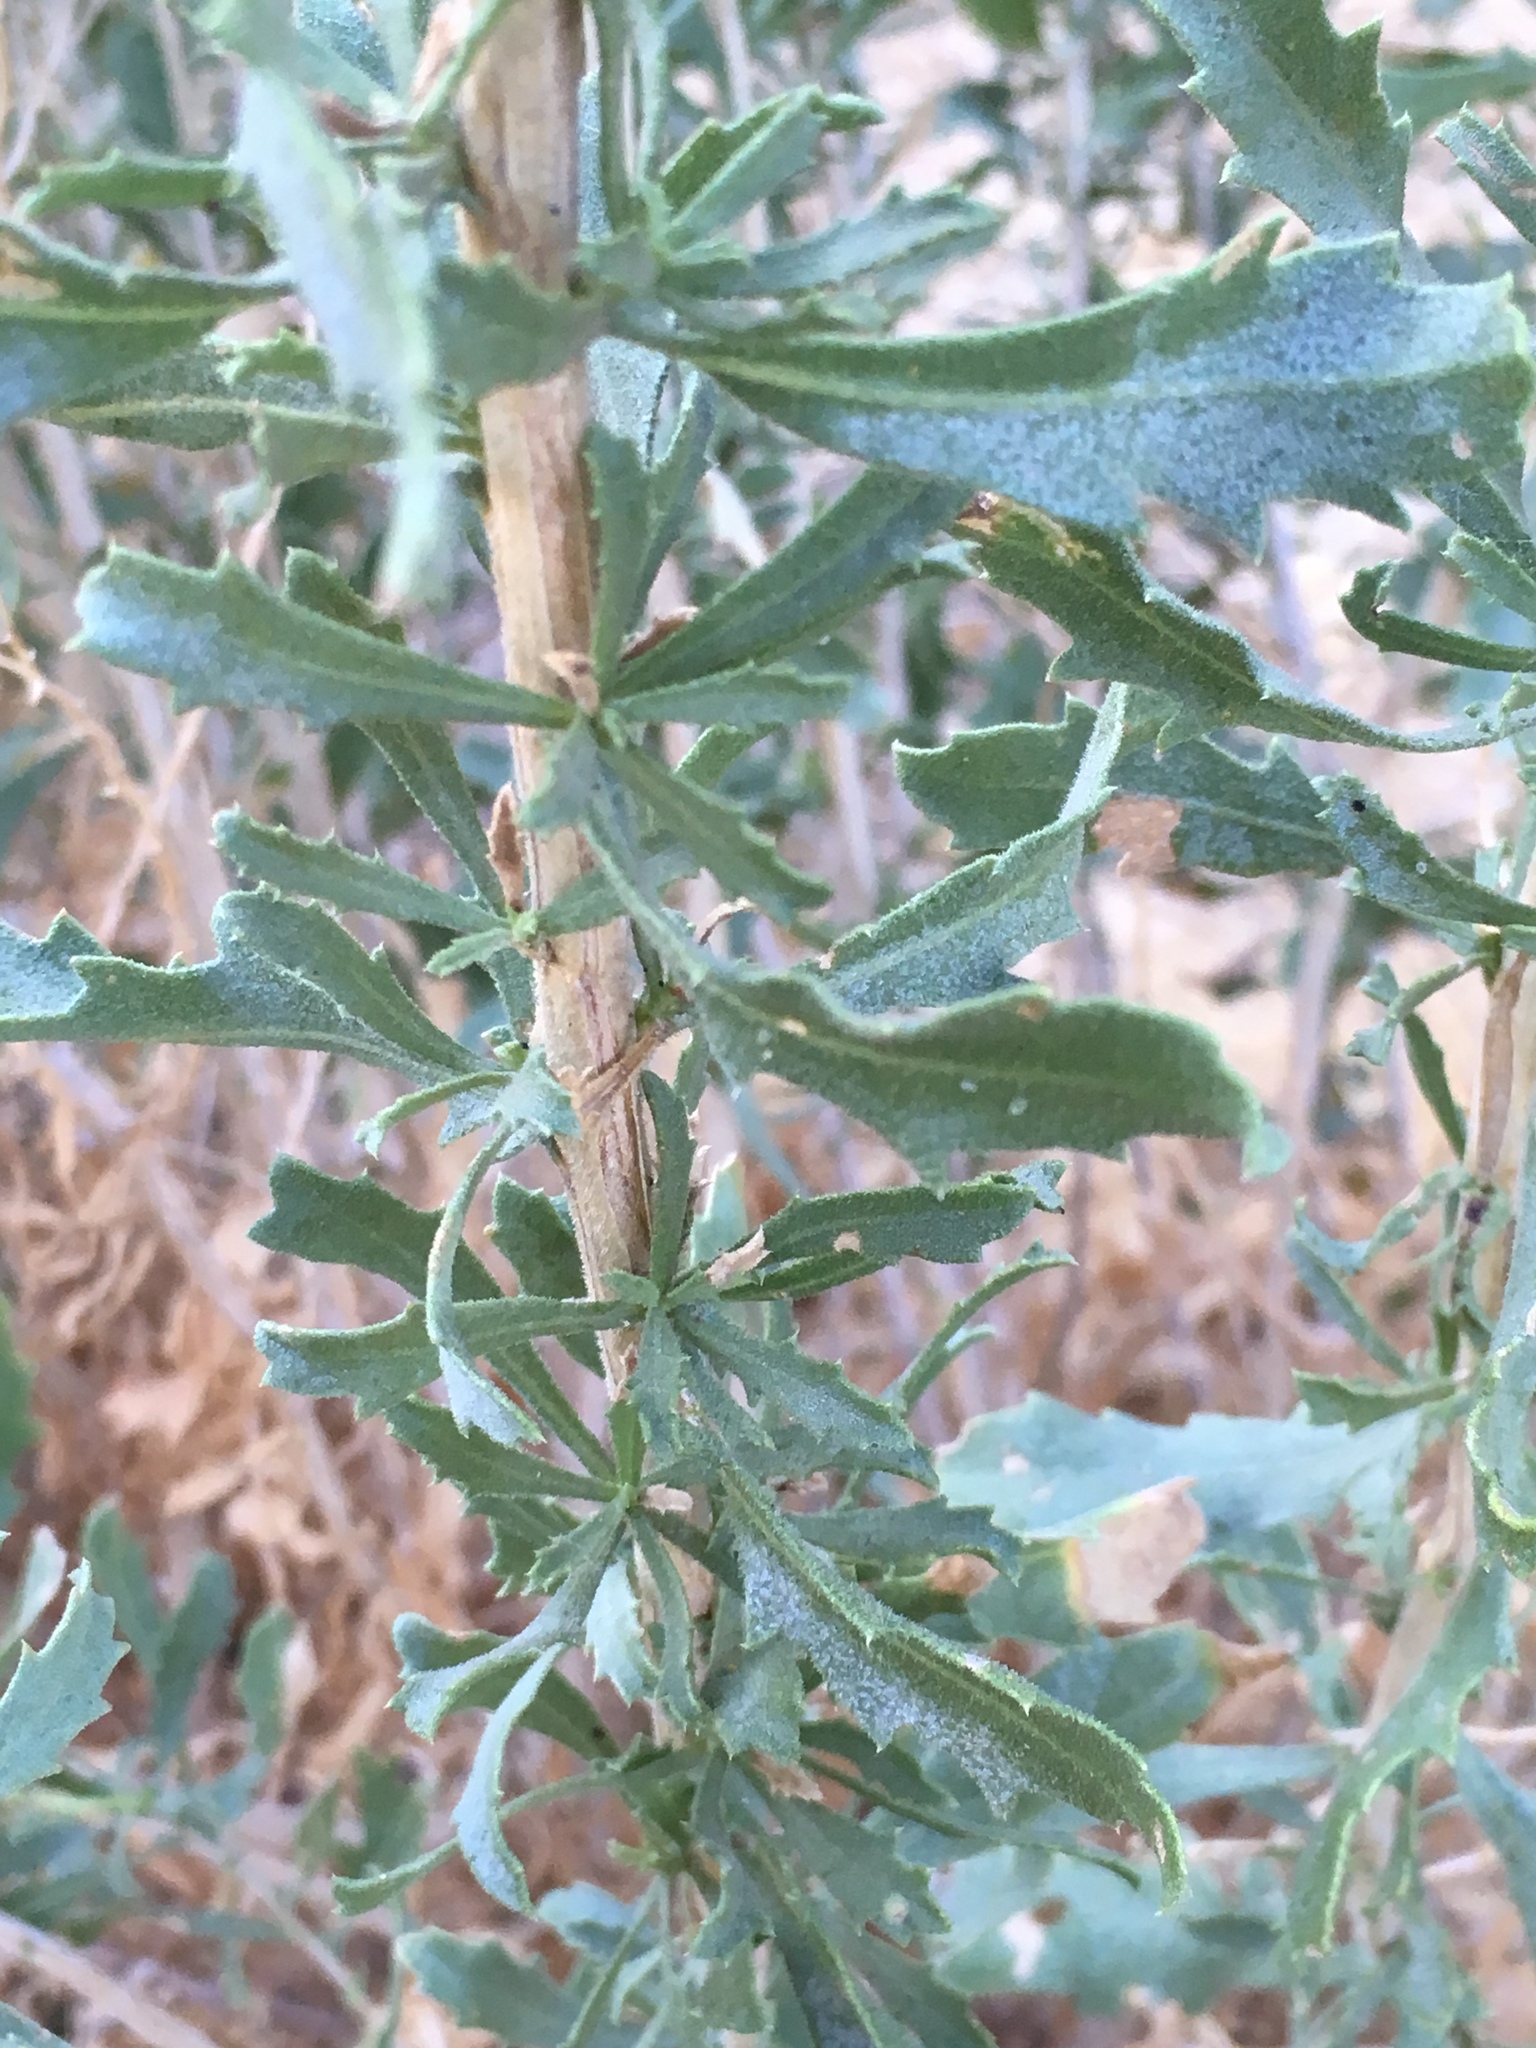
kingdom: Plantae
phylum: Tracheophyta
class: Magnoliopsida
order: Asterales
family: Asteraceae
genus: Isocoma
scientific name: Isocoma acradenia
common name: Alkali jimmyweed
